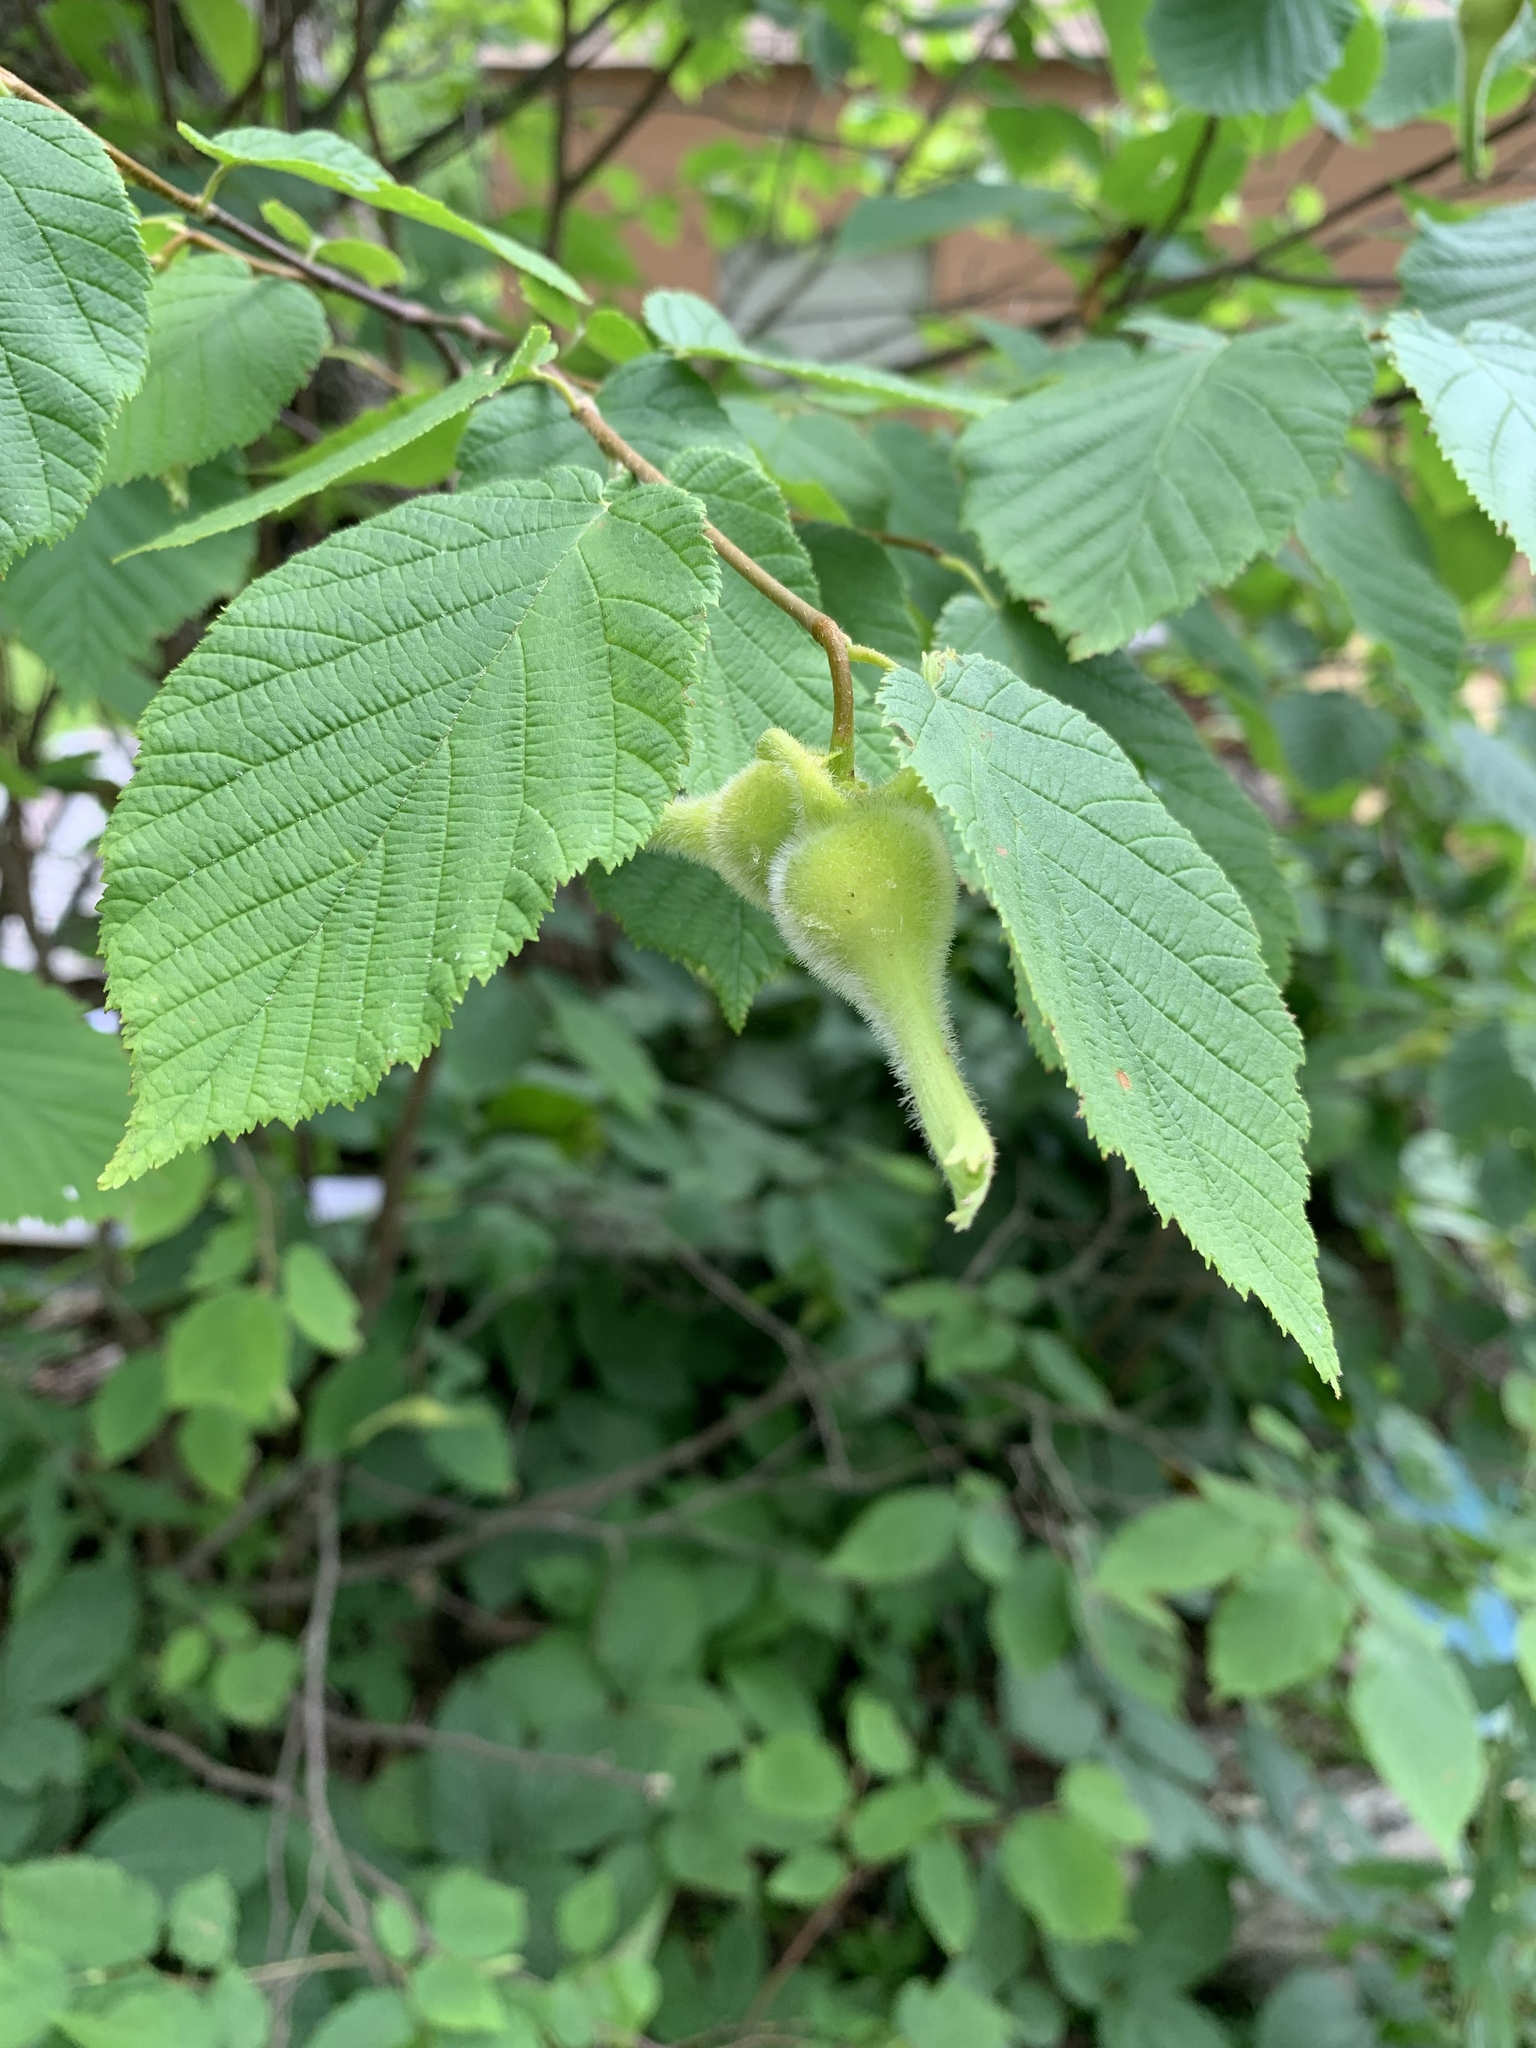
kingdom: Plantae
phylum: Tracheophyta
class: Magnoliopsida
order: Fagales
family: Betulaceae
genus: Corylus
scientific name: Corylus cornuta
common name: Beaked hazel
